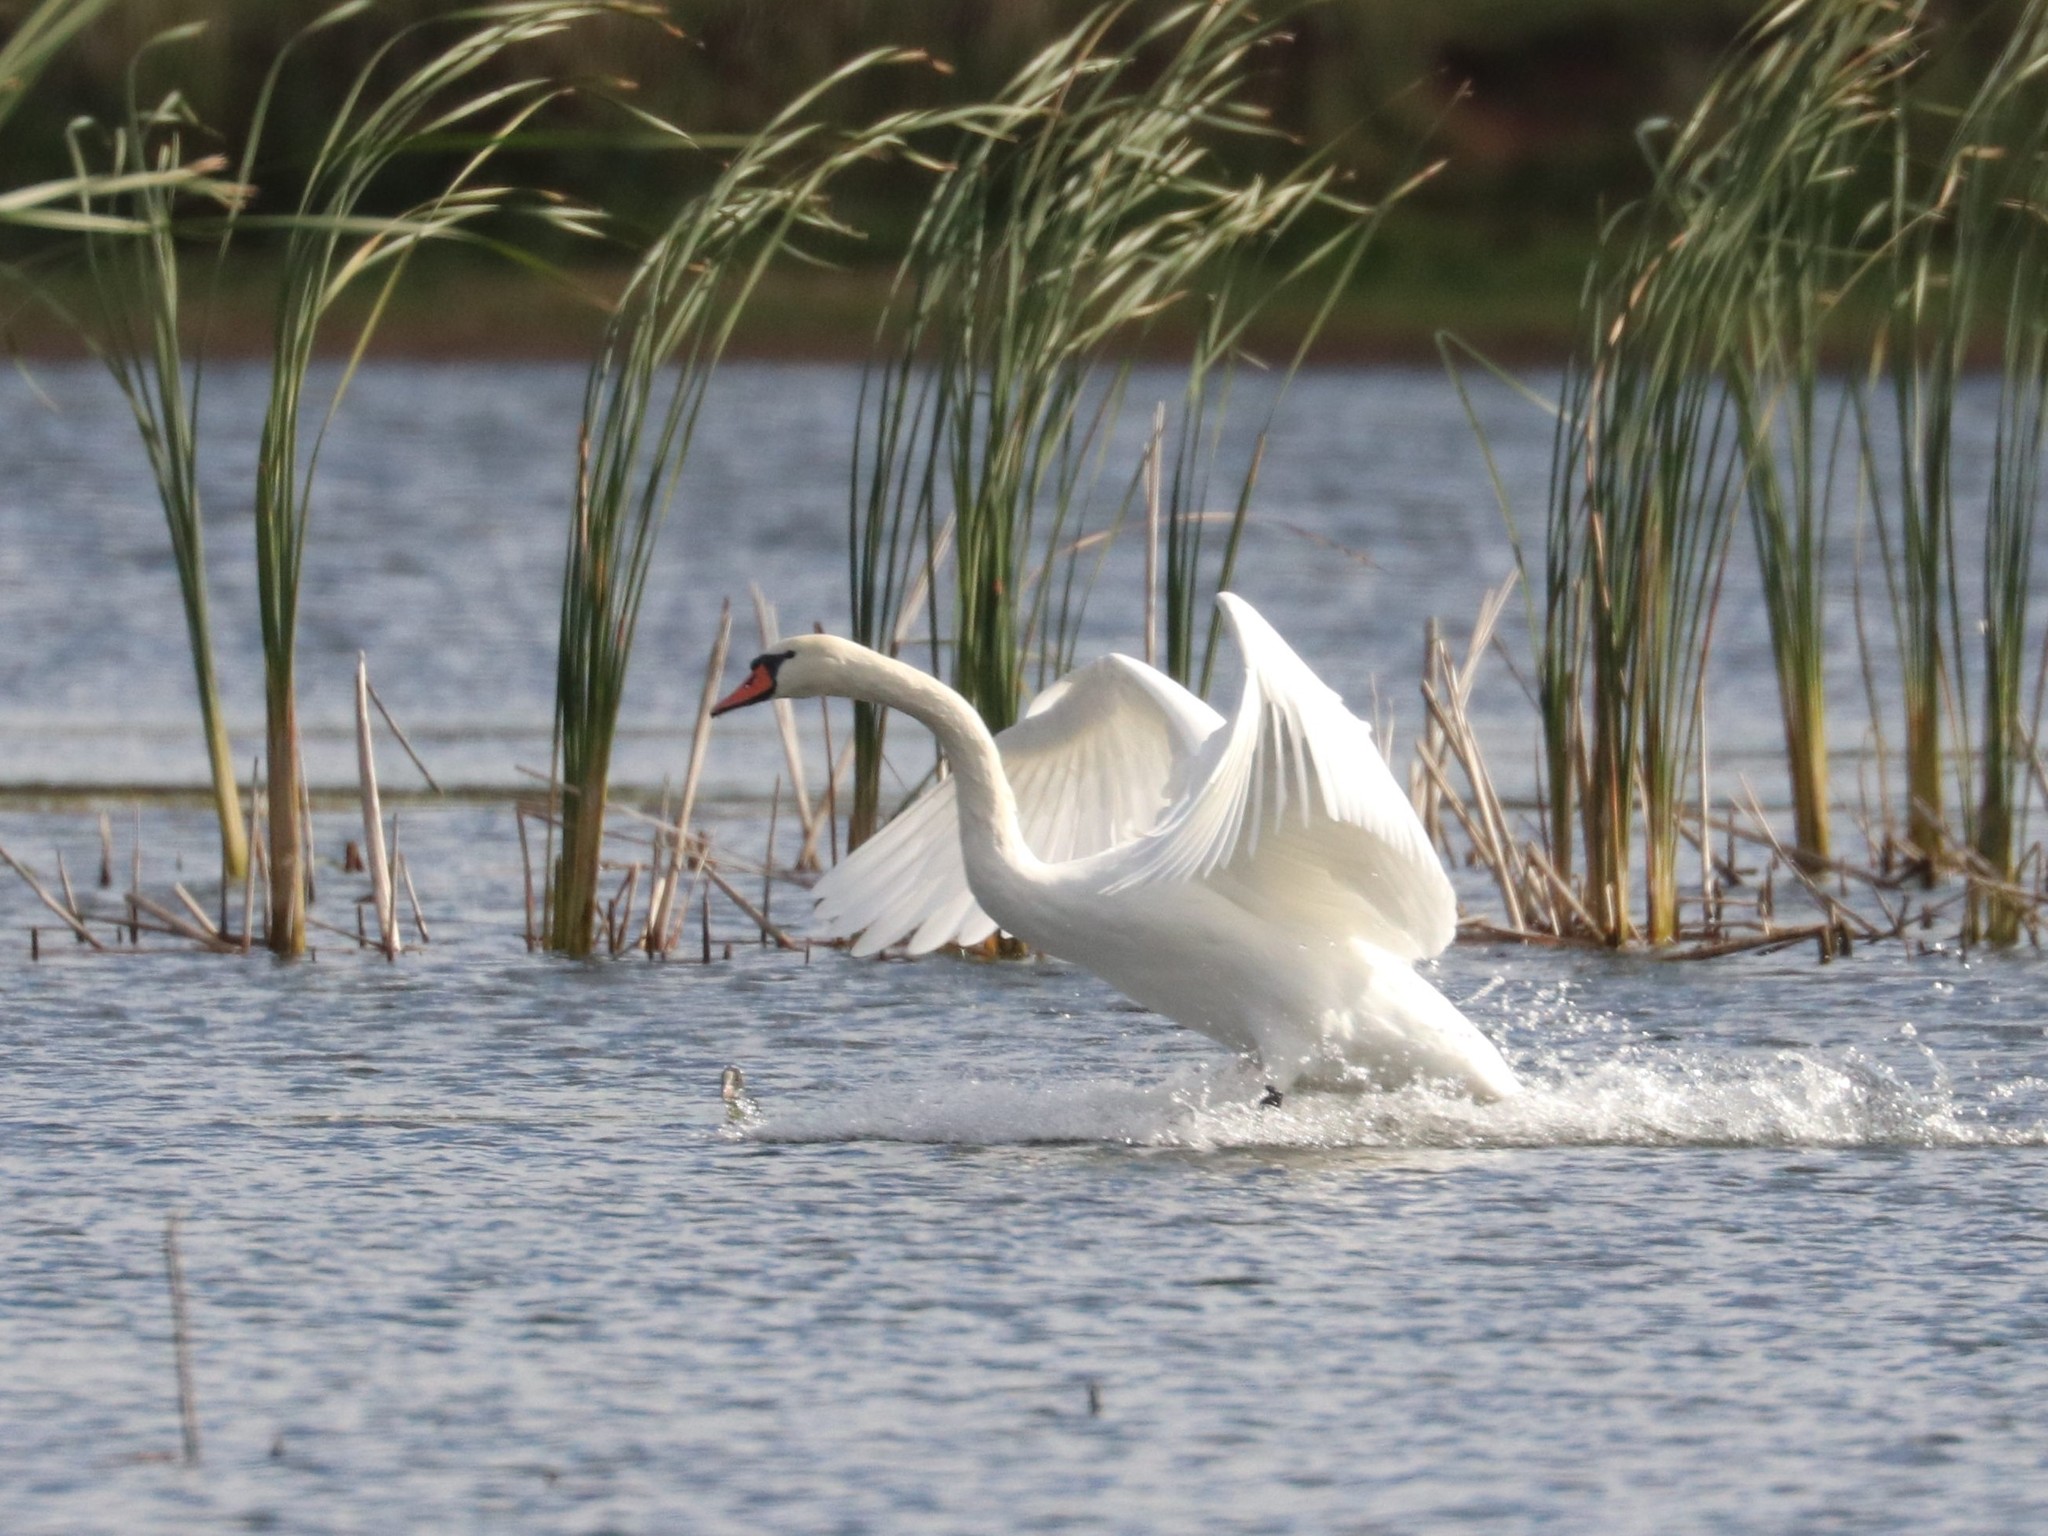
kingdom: Animalia
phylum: Chordata
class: Aves
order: Anseriformes
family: Anatidae
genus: Cygnus
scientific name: Cygnus olor
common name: Mute swan
